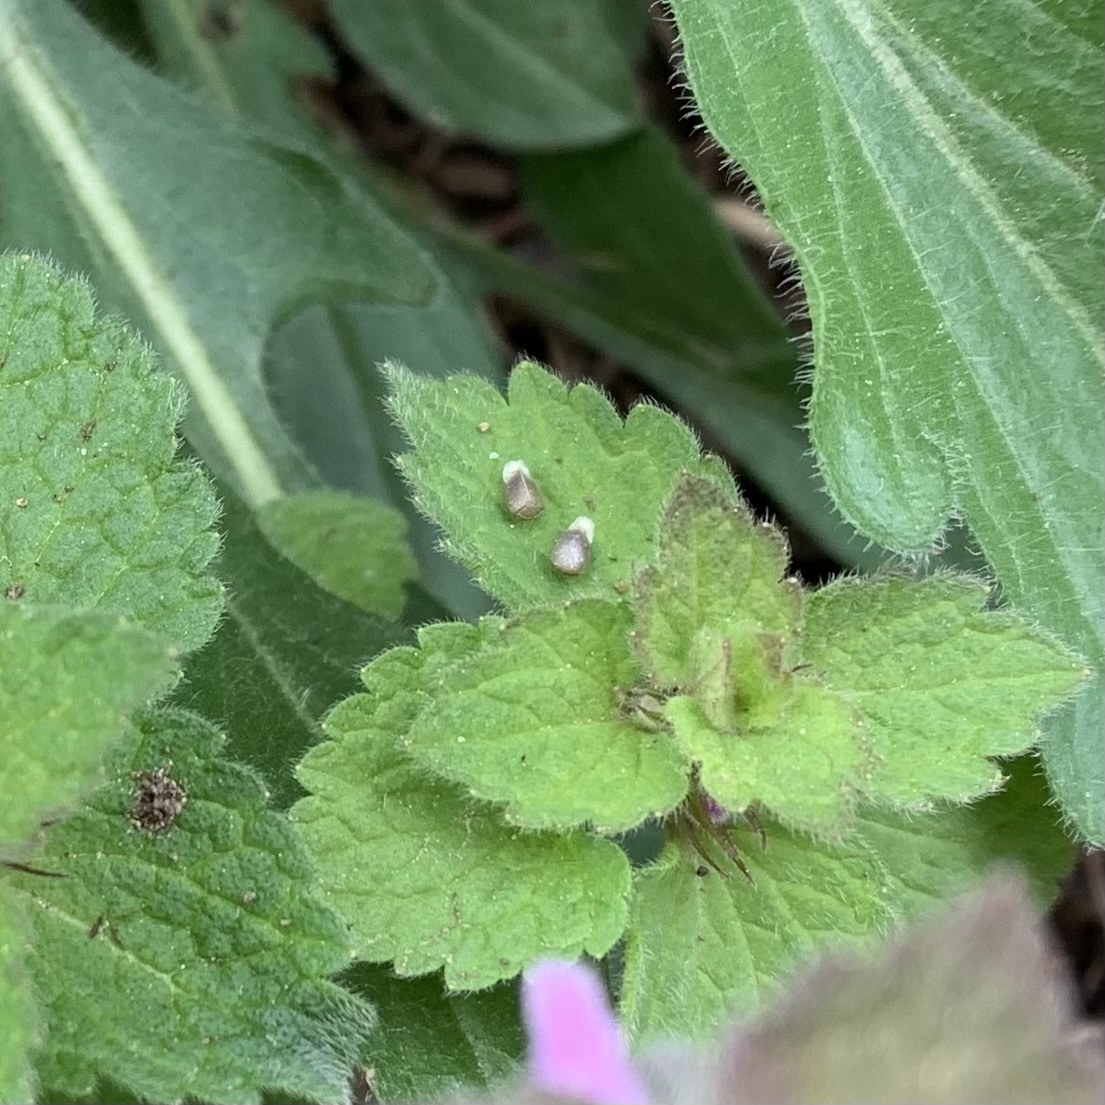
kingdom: Plantae
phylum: Tracheophyta
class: Magnoliopsida
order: Lamiales
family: Lamiaceae
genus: Lamium
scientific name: Lamium purpureum
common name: Red dead-nettle
